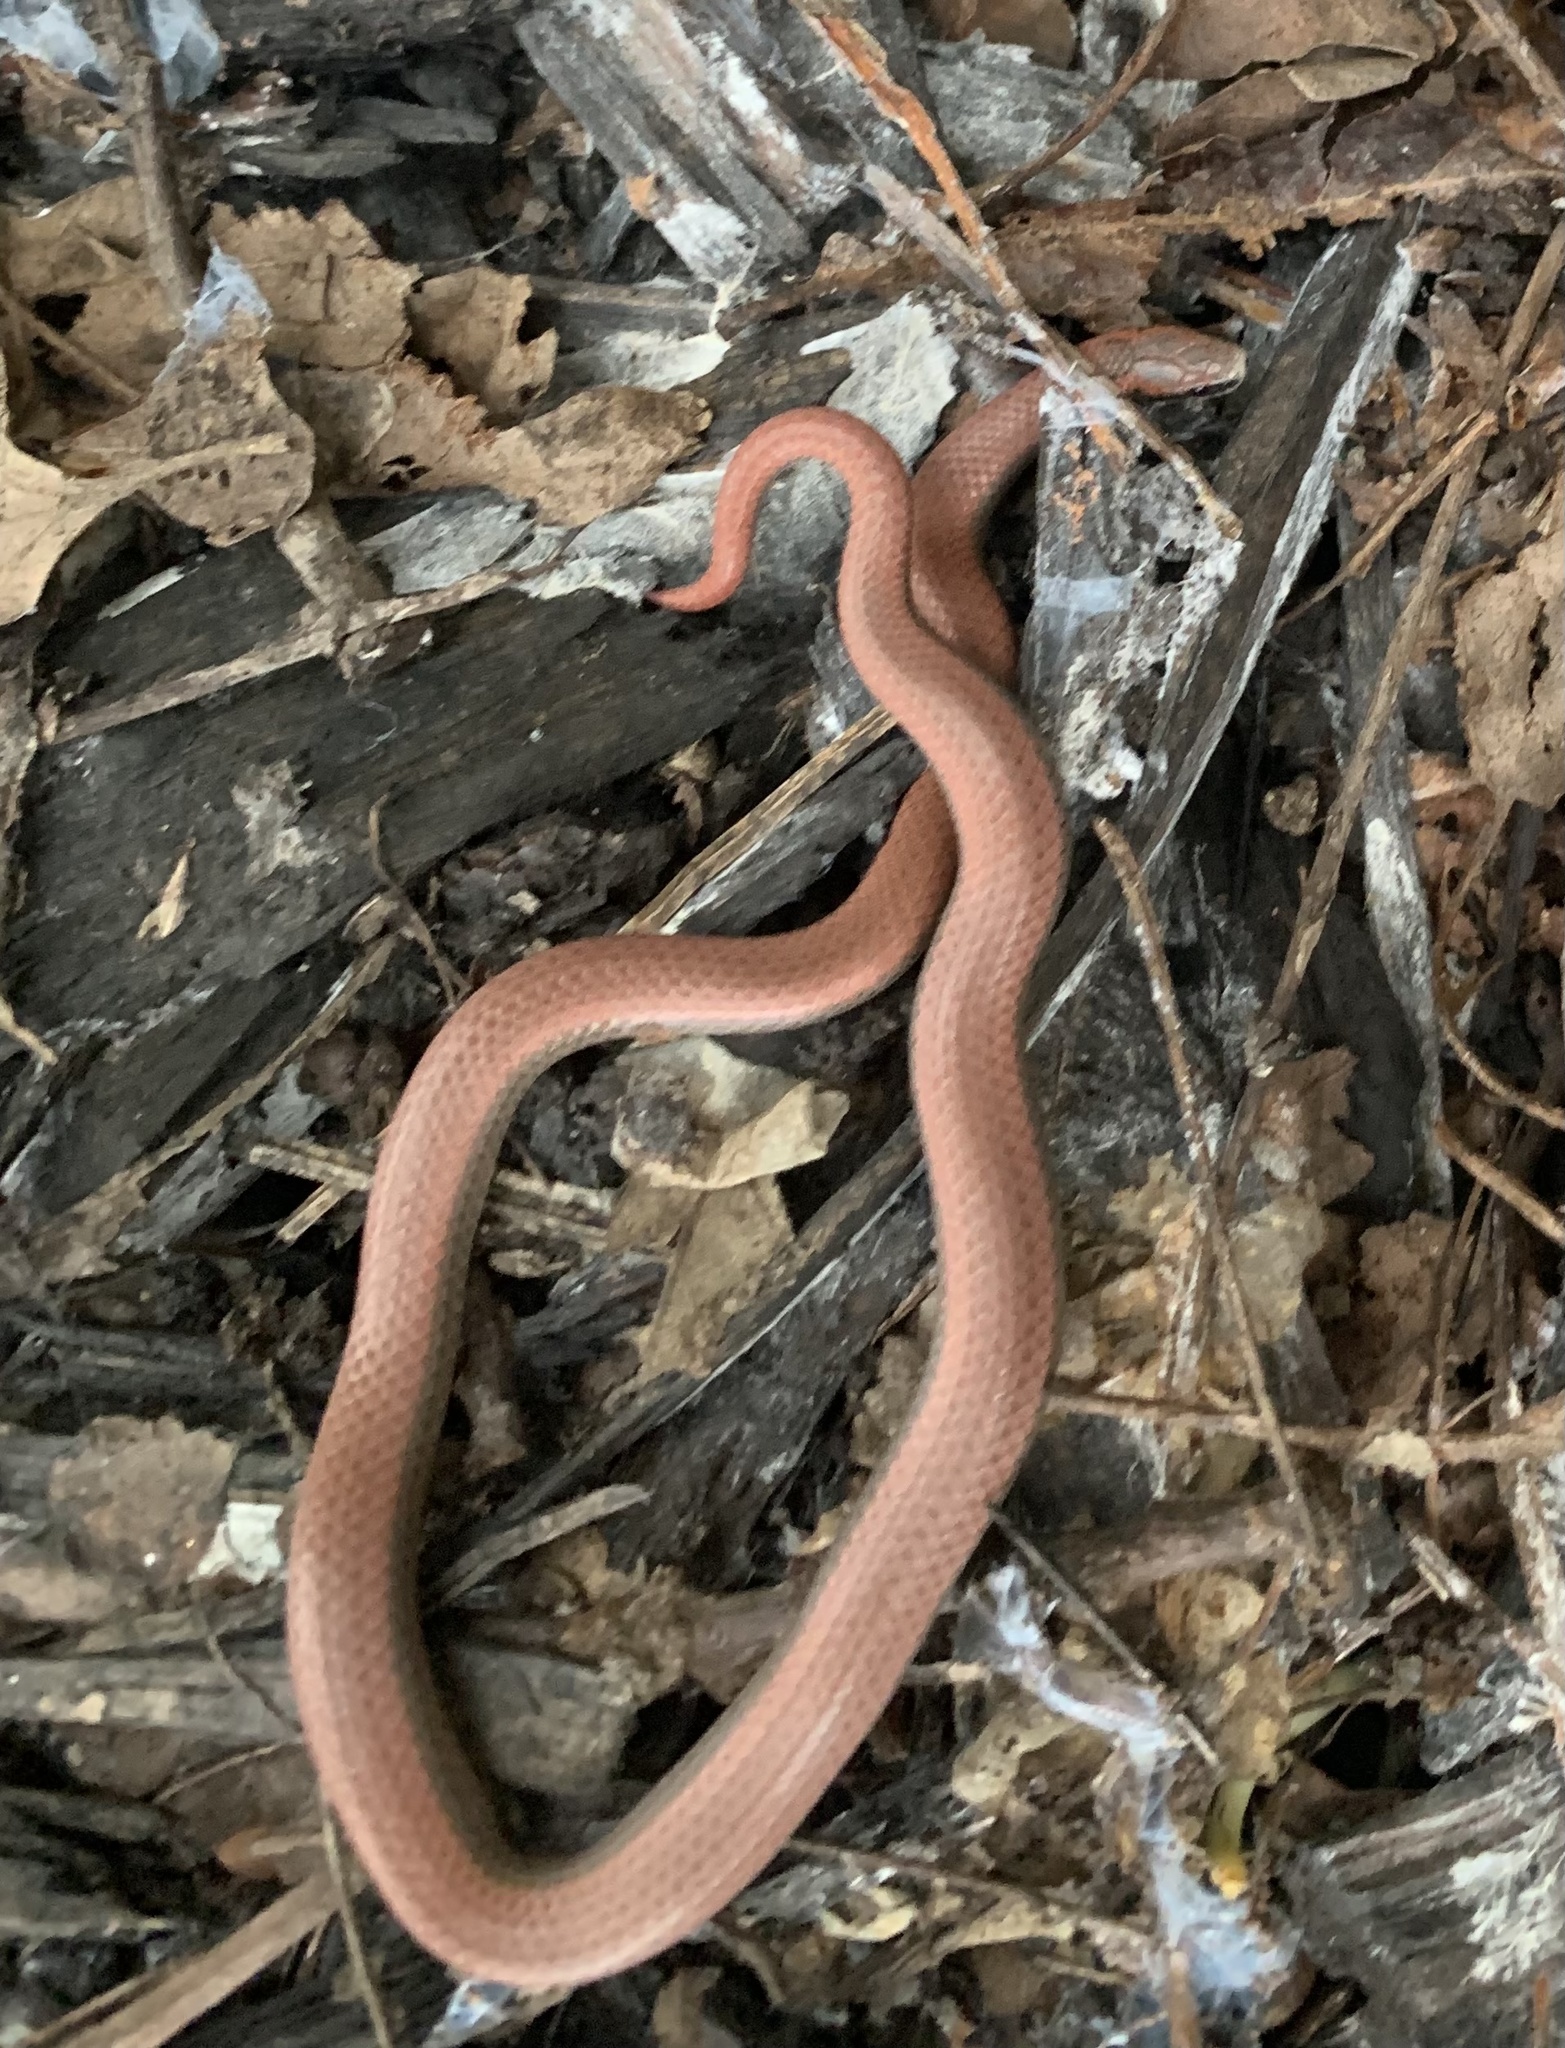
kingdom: Animalia
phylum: Chordata
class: Squamata
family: Colubridae
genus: Contia
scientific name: Contia tenuis
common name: Sharptail snake
